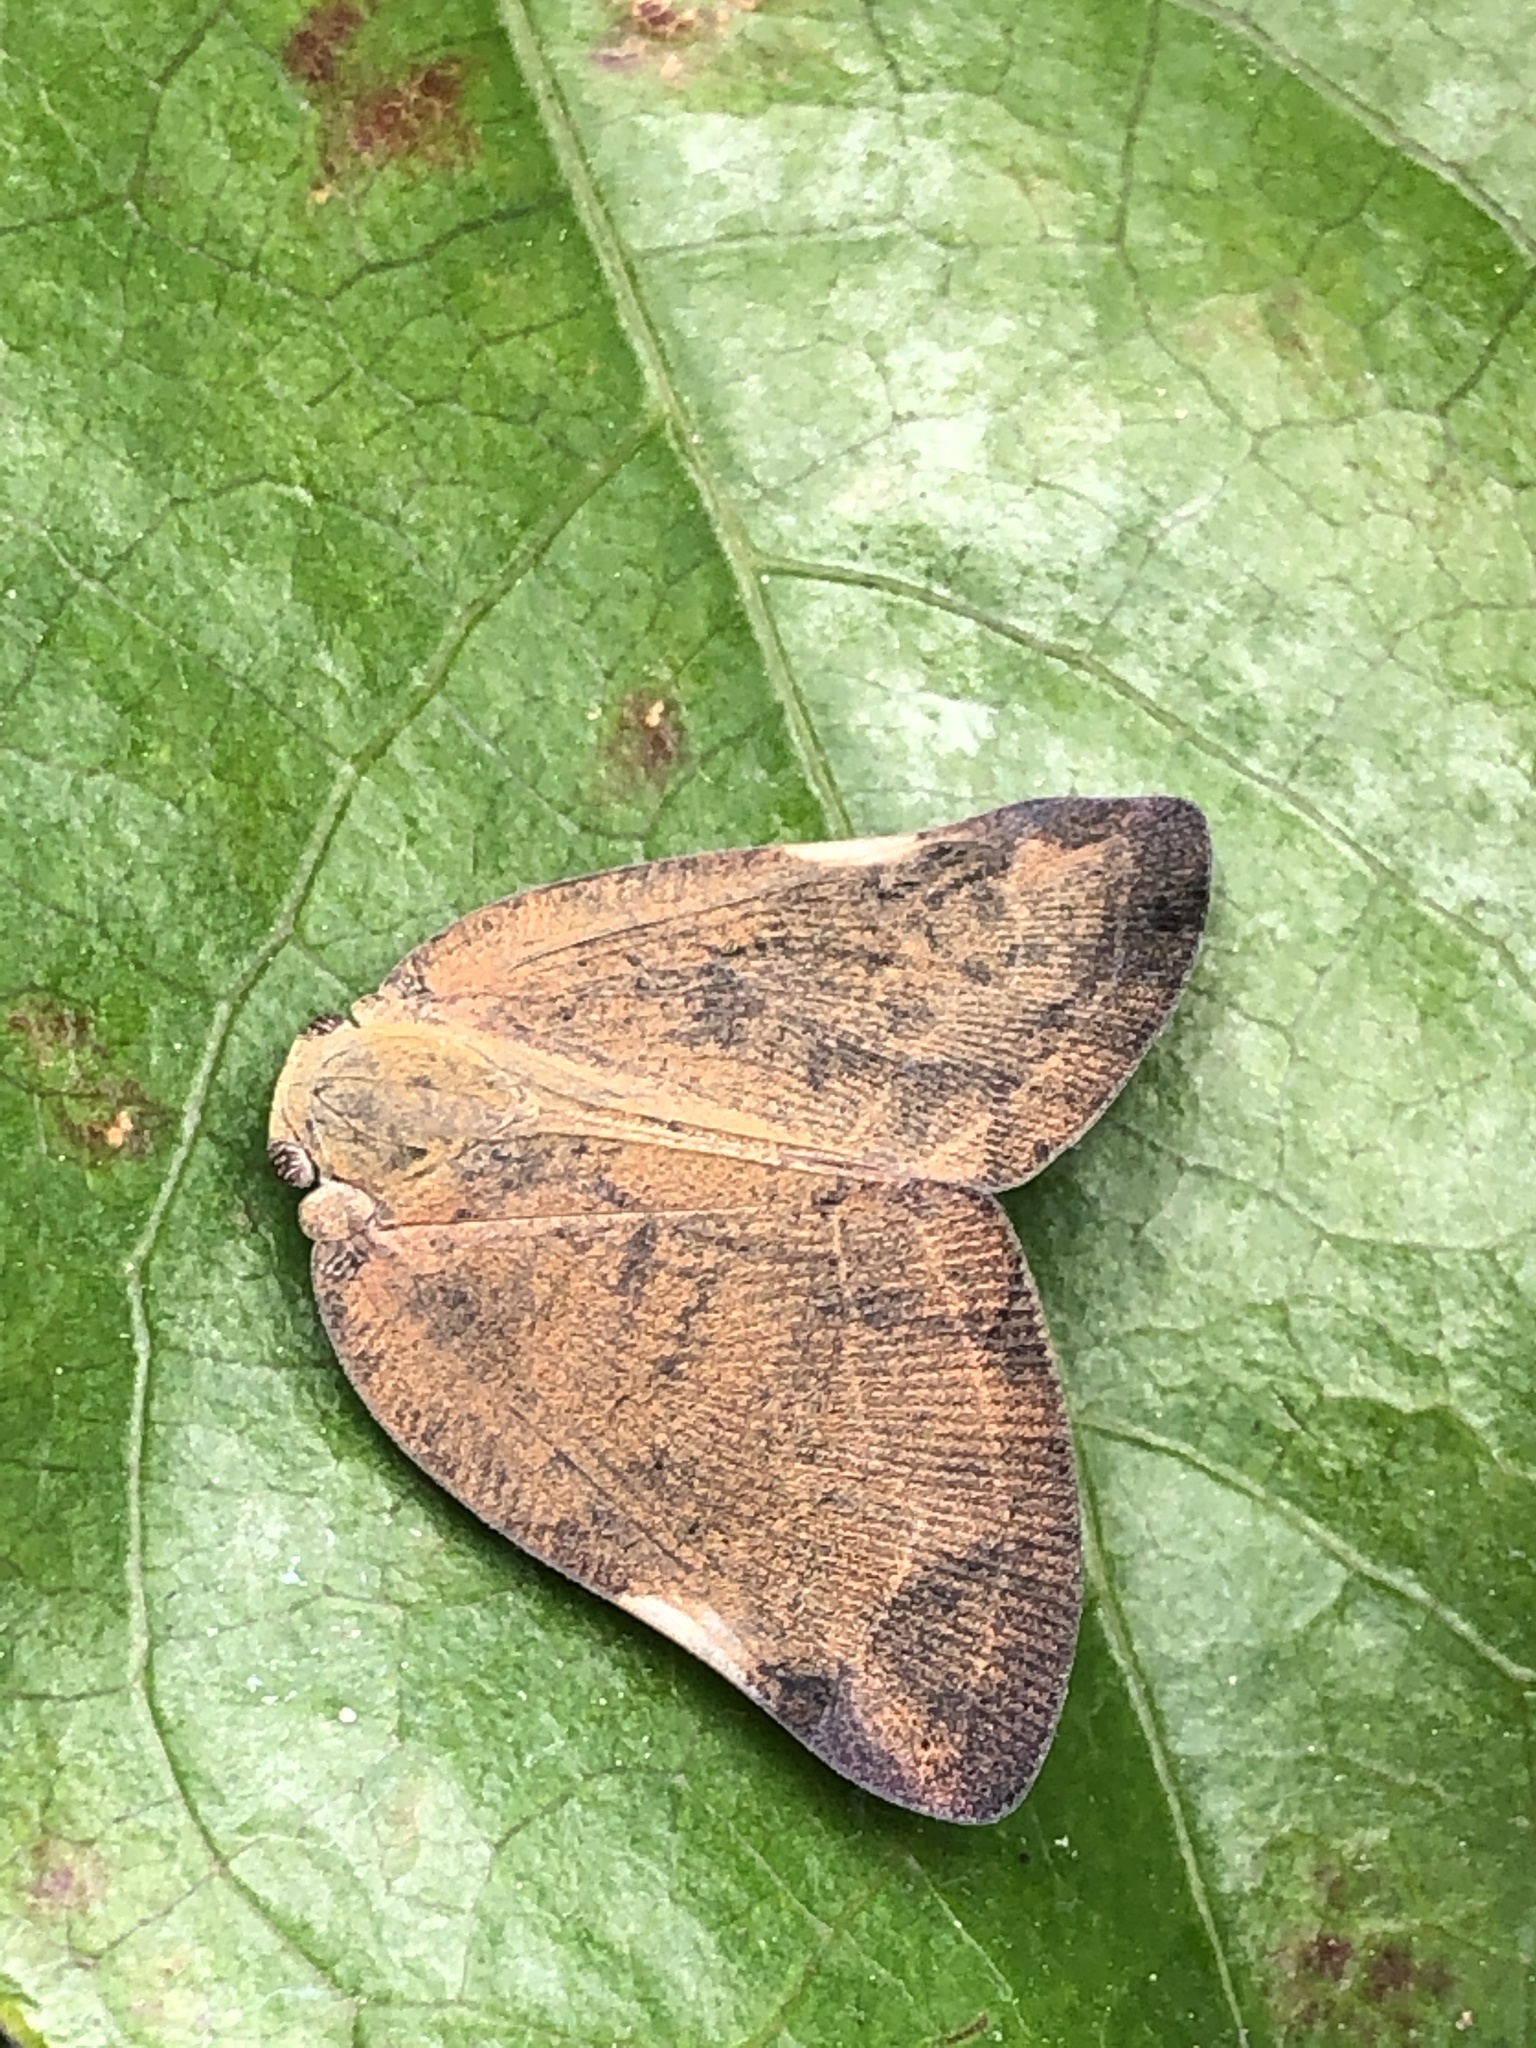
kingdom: Animalia
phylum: Arthropoda
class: Insecta
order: Hemiptera
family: Ricaniidae
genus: Ricanula
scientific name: Ricanula sublimata
